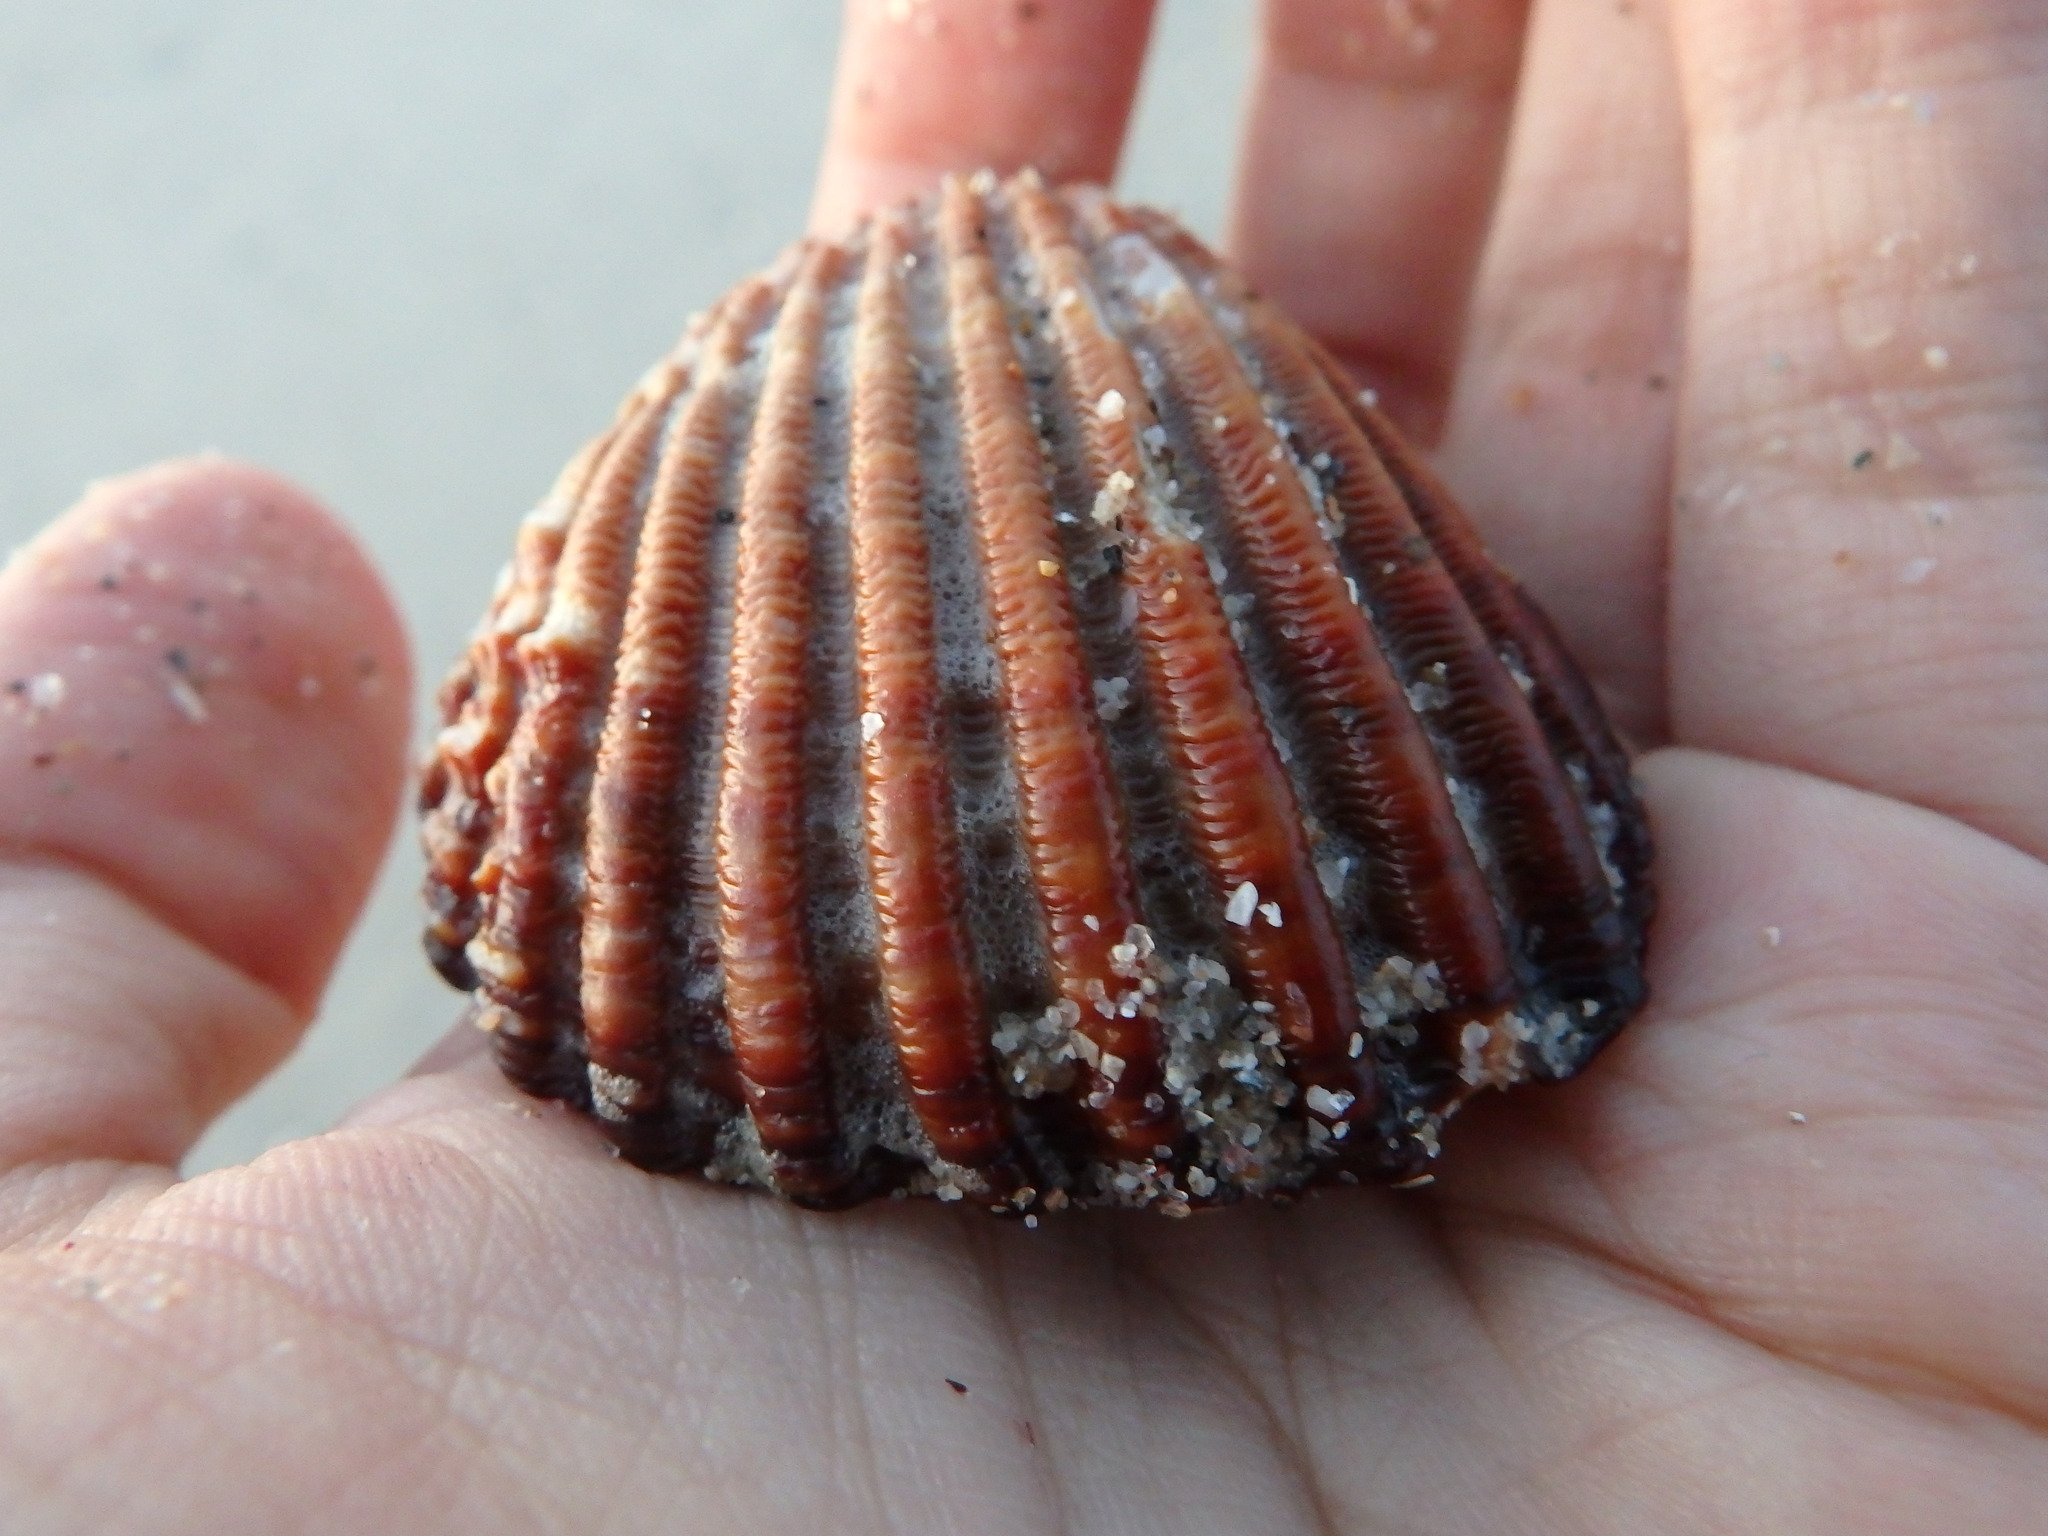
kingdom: Animalia
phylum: Mollusca
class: Bivalvia
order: Cardiida
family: Cardiidae
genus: Acanthocardia
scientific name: Acanthocardia tuberculata
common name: Rough cockle
